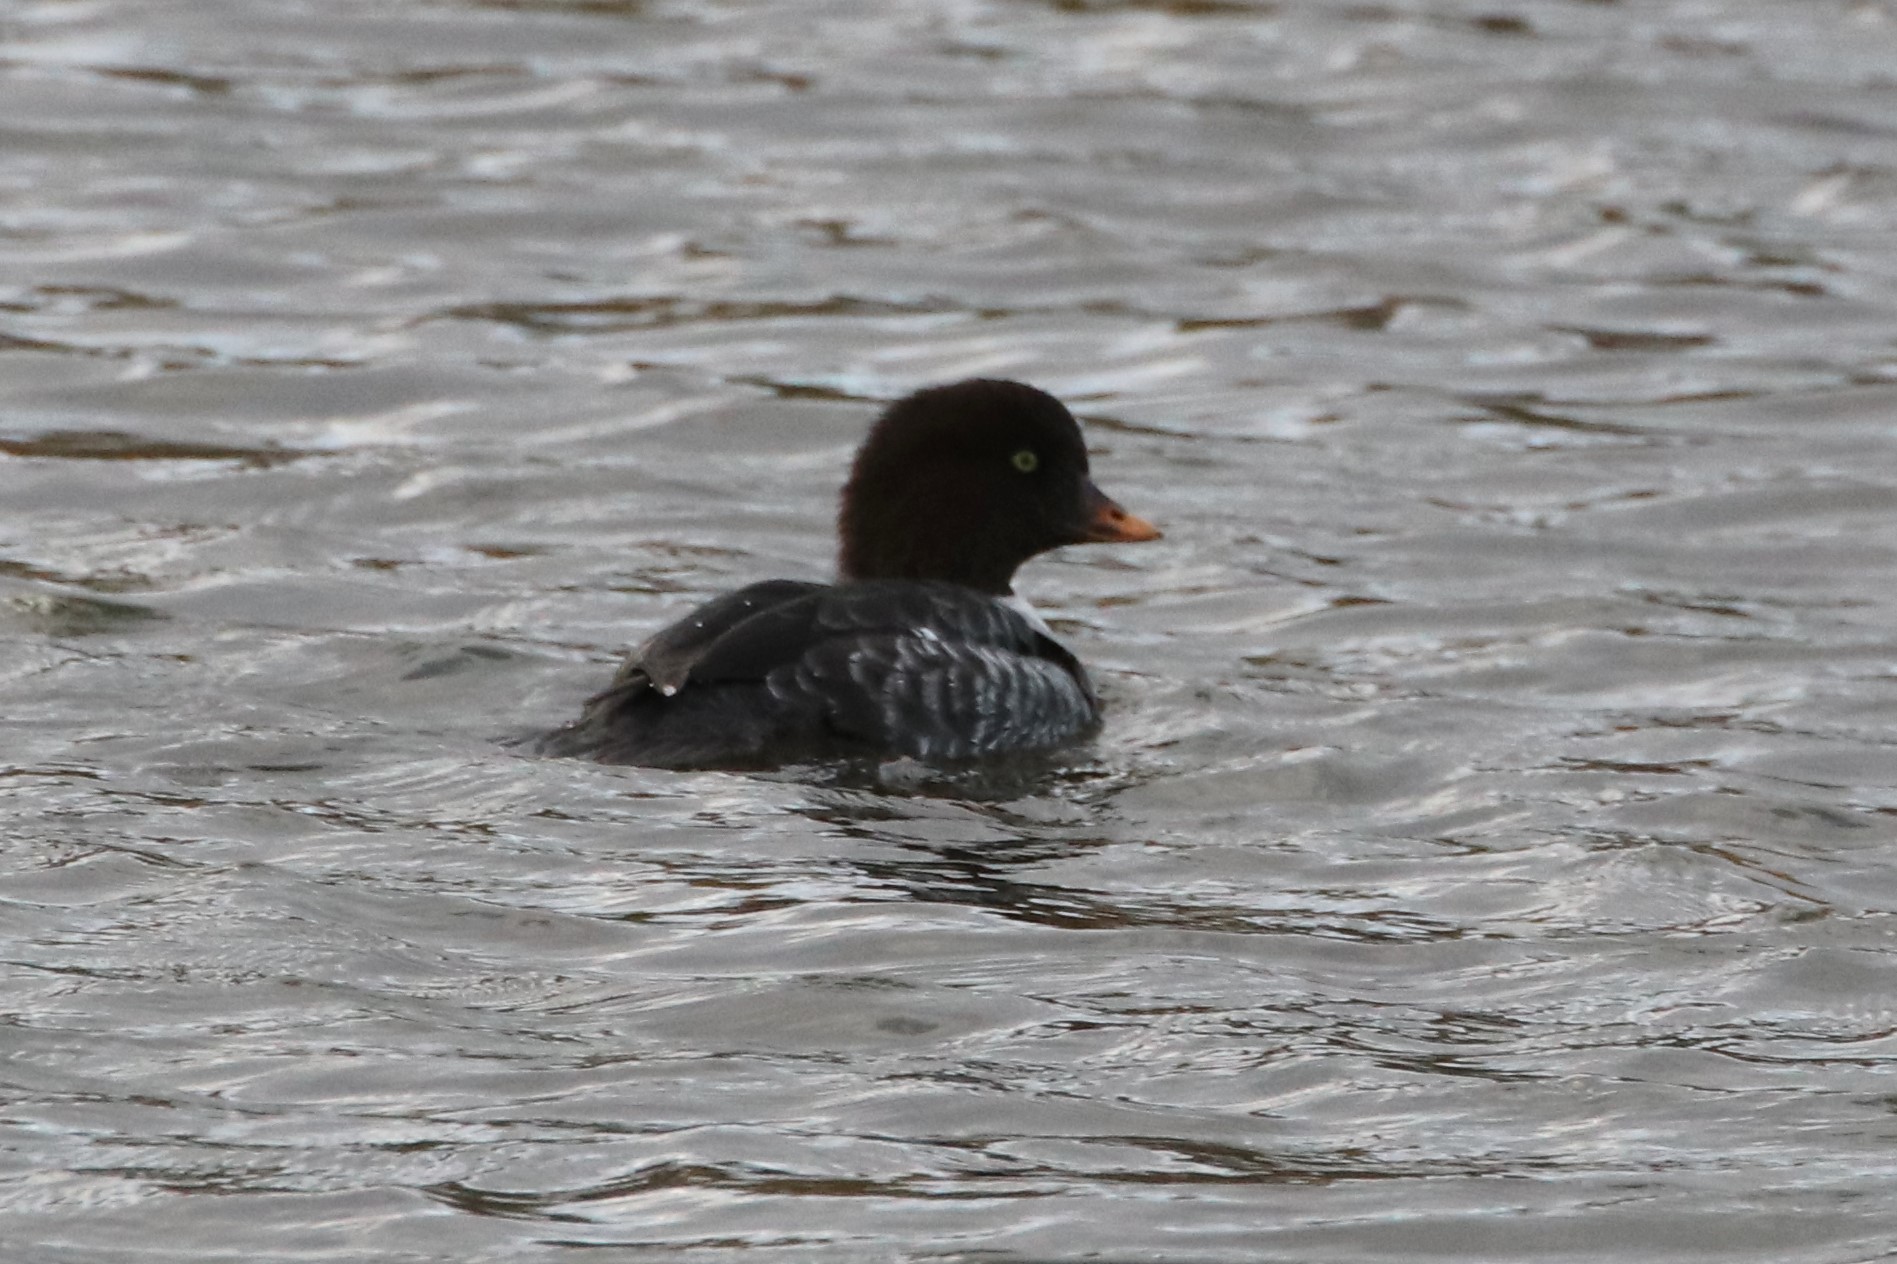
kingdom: Animalia
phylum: Chordata
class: Aves
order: Anseriformes
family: Anatidae
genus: Bucephala
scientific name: Bucephala islandica
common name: Barrow's goldeneye
